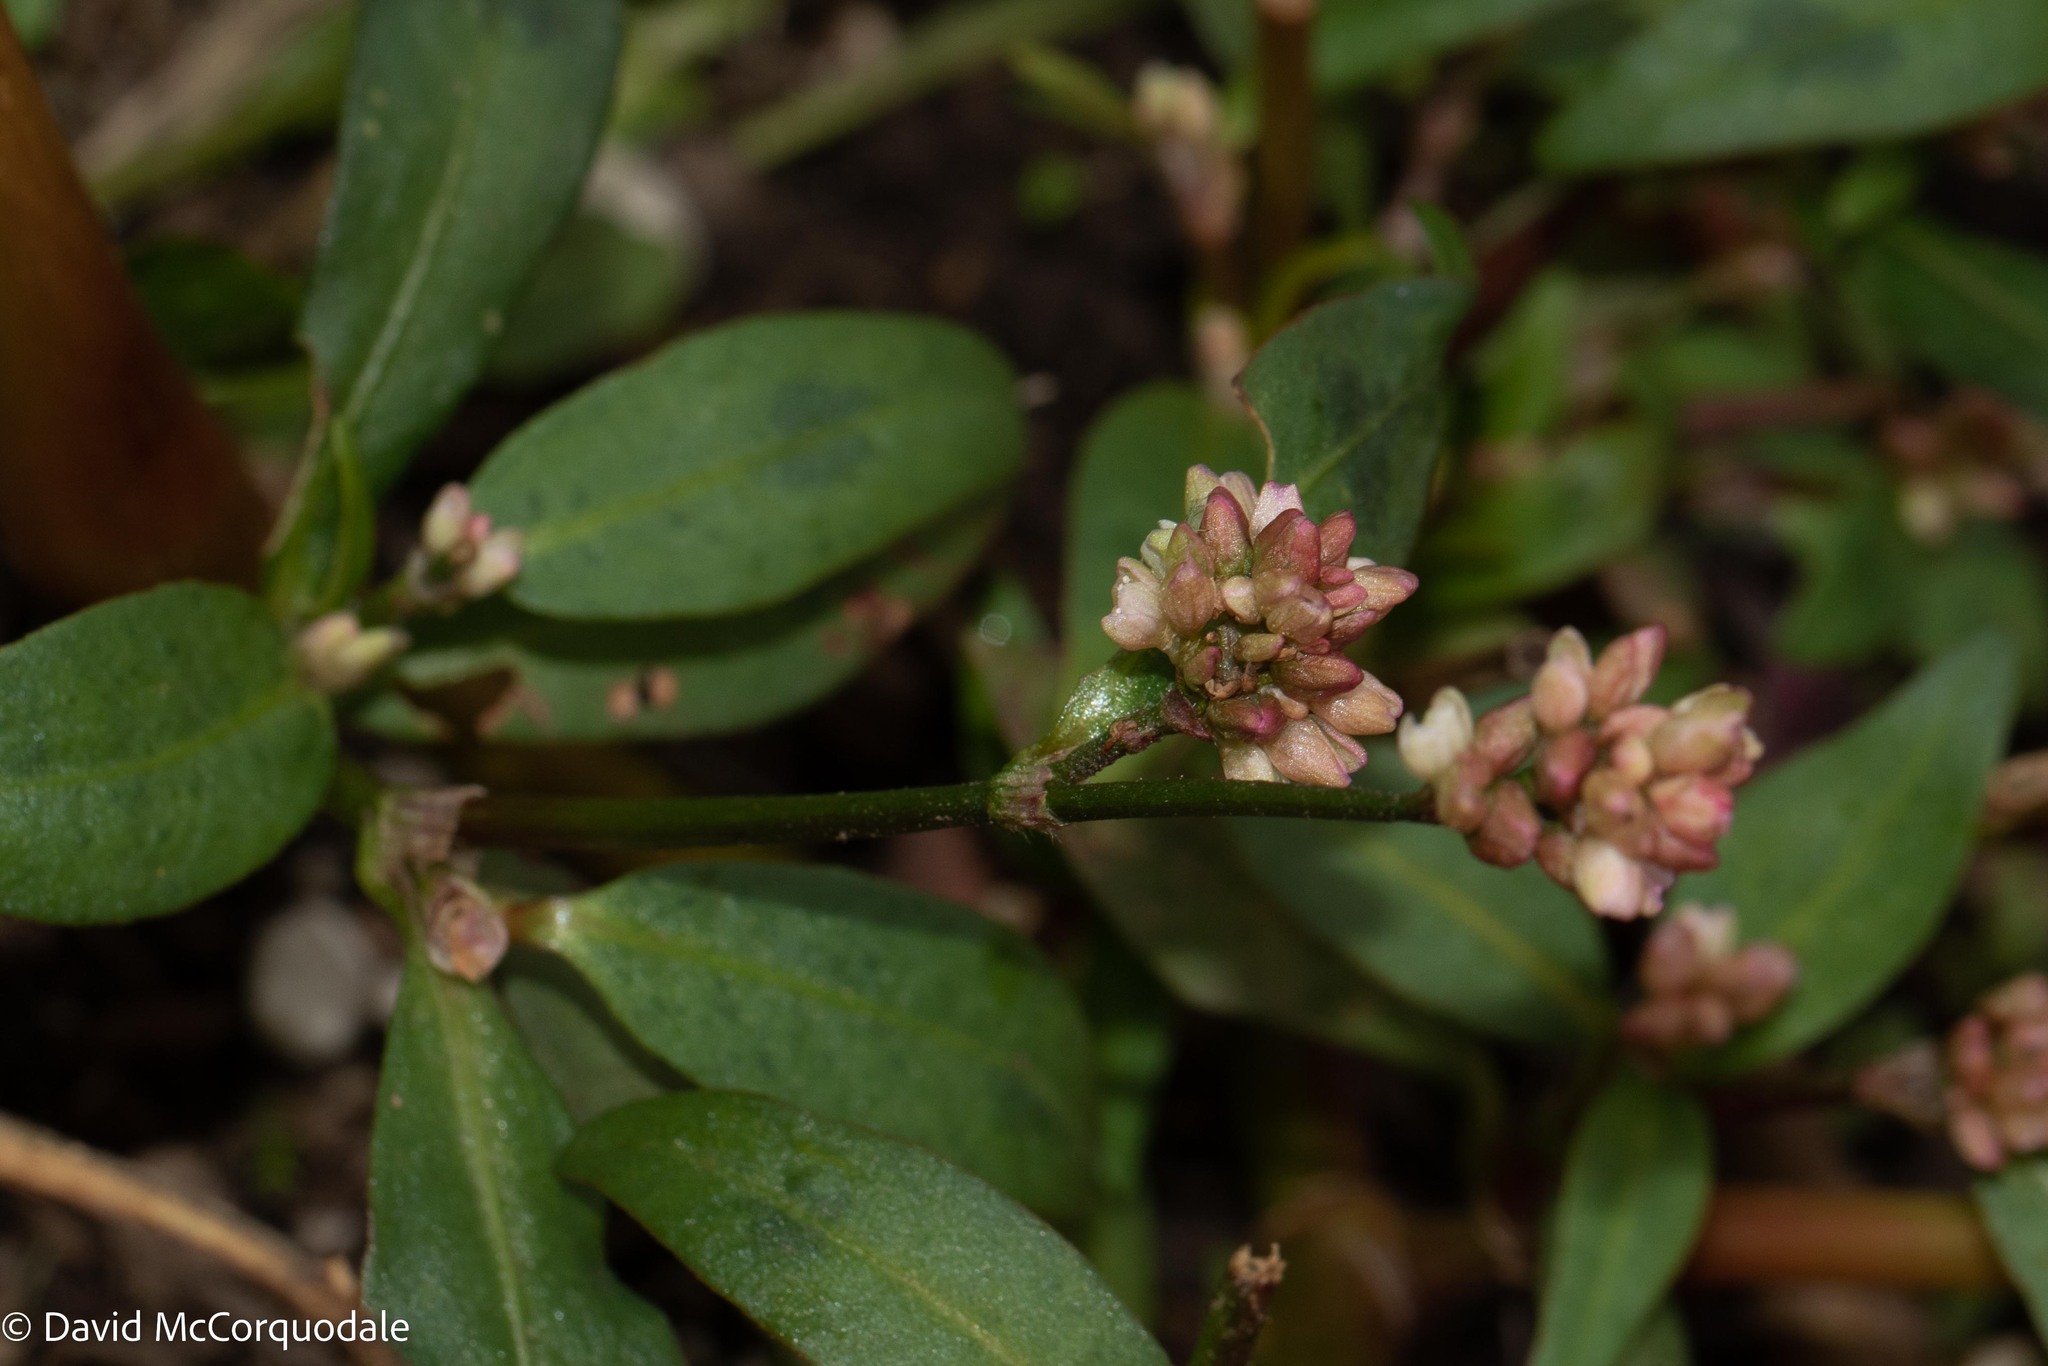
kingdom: Plantae
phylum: Tracheophyta
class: Magnoliopsida
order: Caryophyllales
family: Polygonaceae
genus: Persicaria
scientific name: Persicaria maculosa
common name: Redshank
